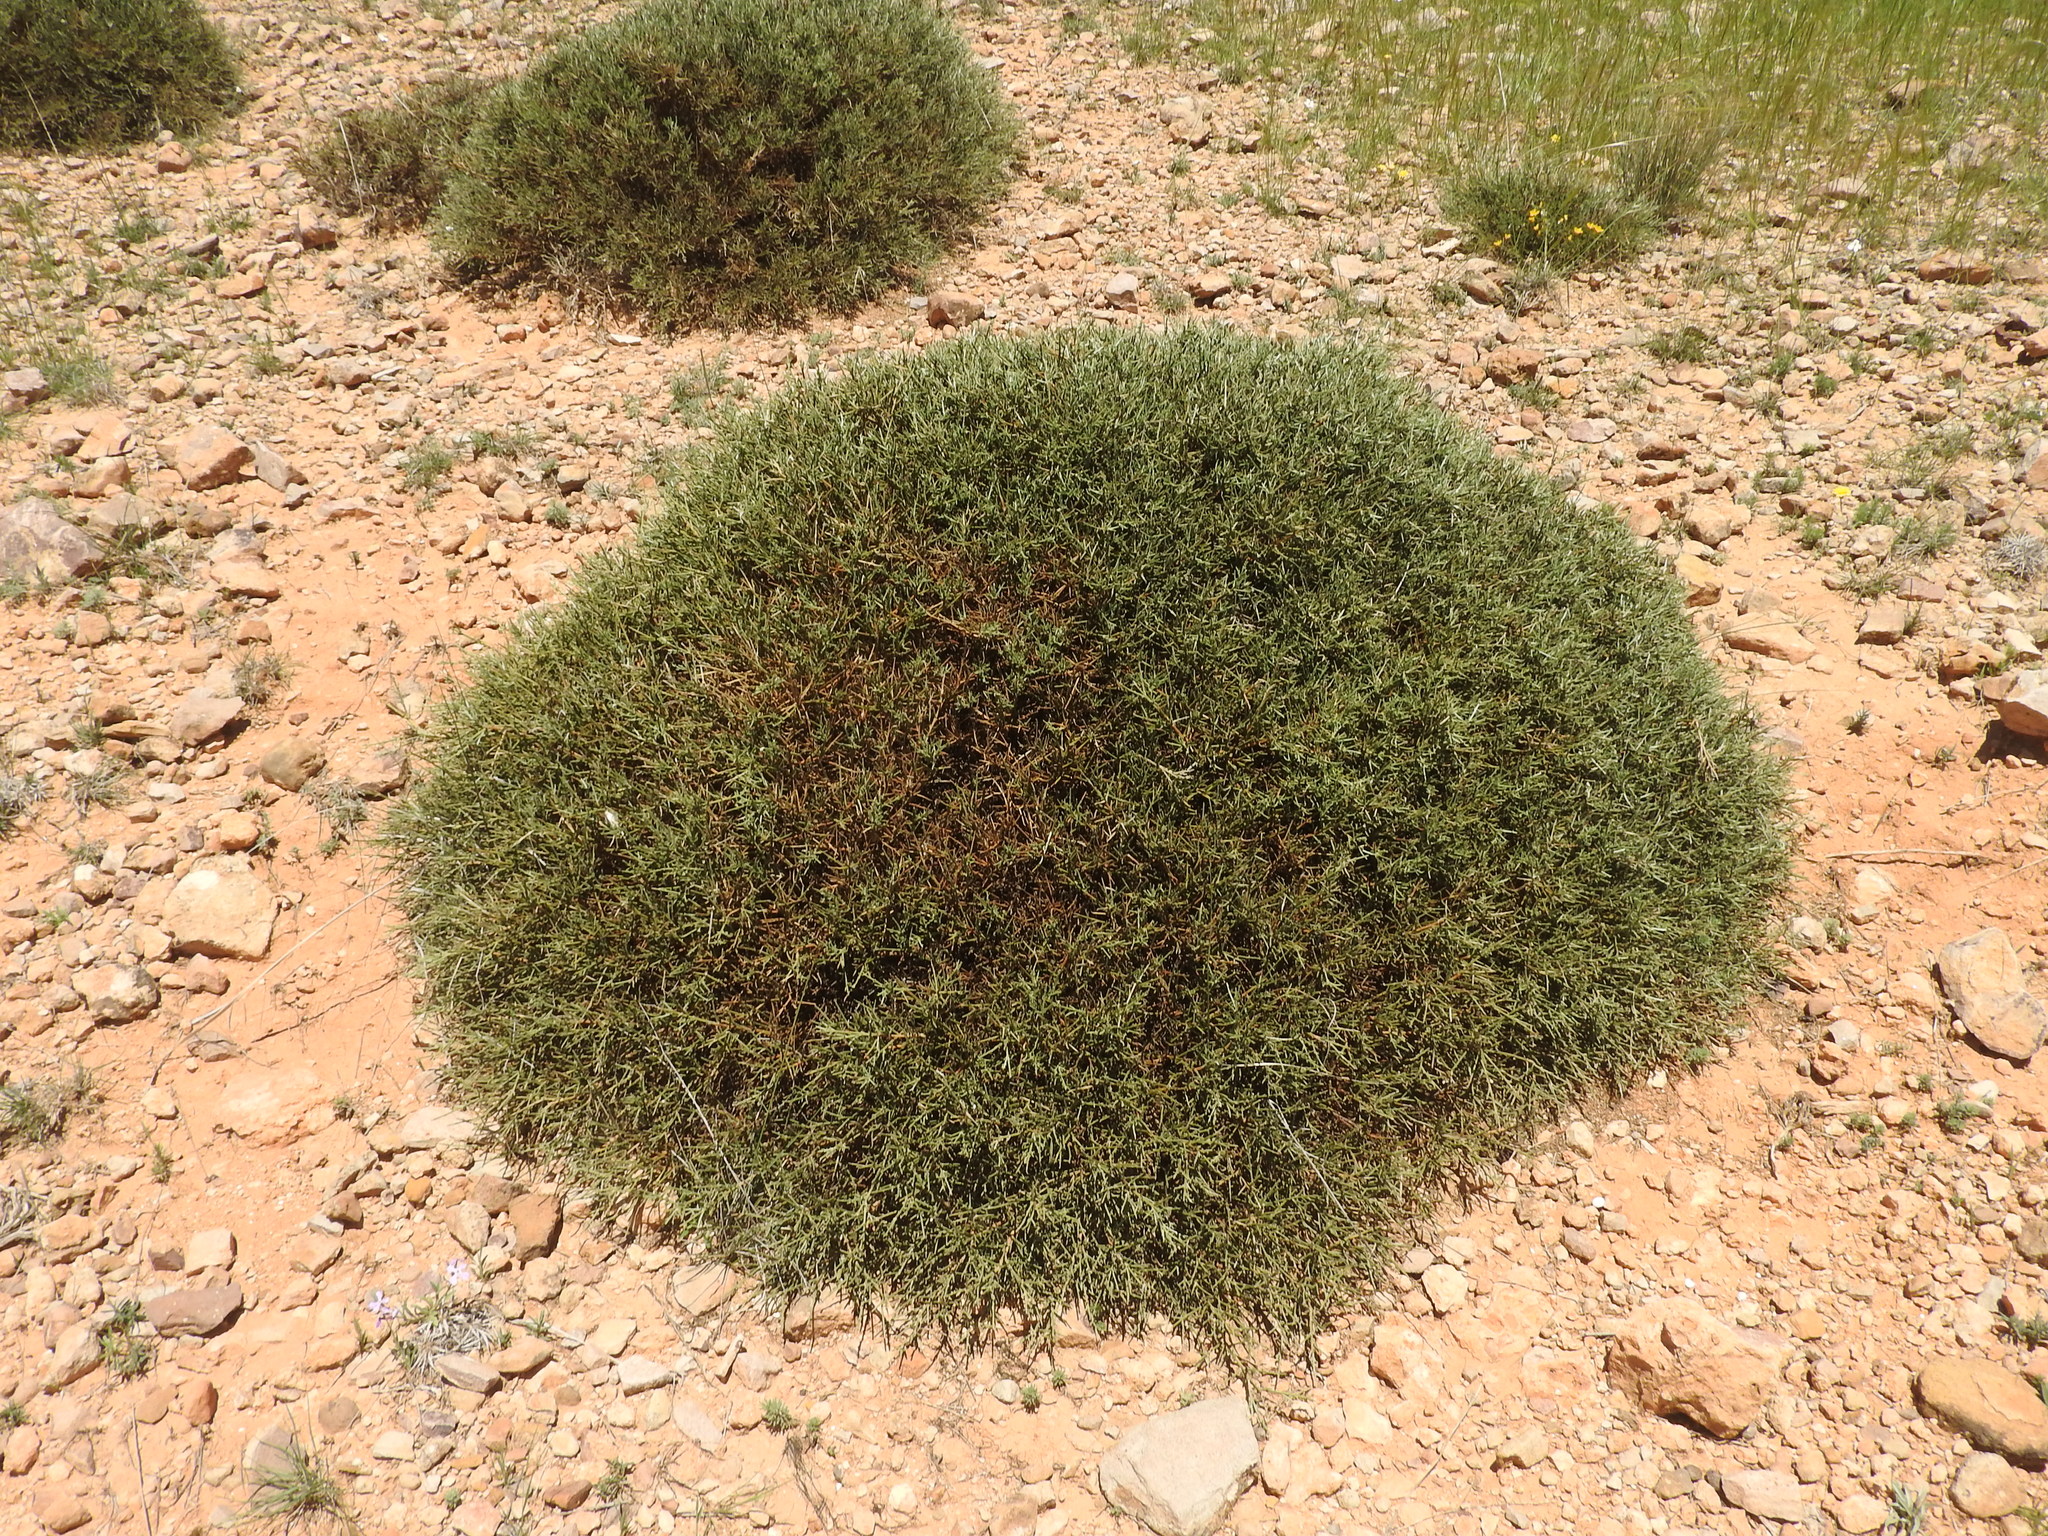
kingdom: Plantae
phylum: Tracheophyta
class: Magnoliopsida
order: Fabales
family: Fabaceae
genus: Genista
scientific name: Genista microcephala
